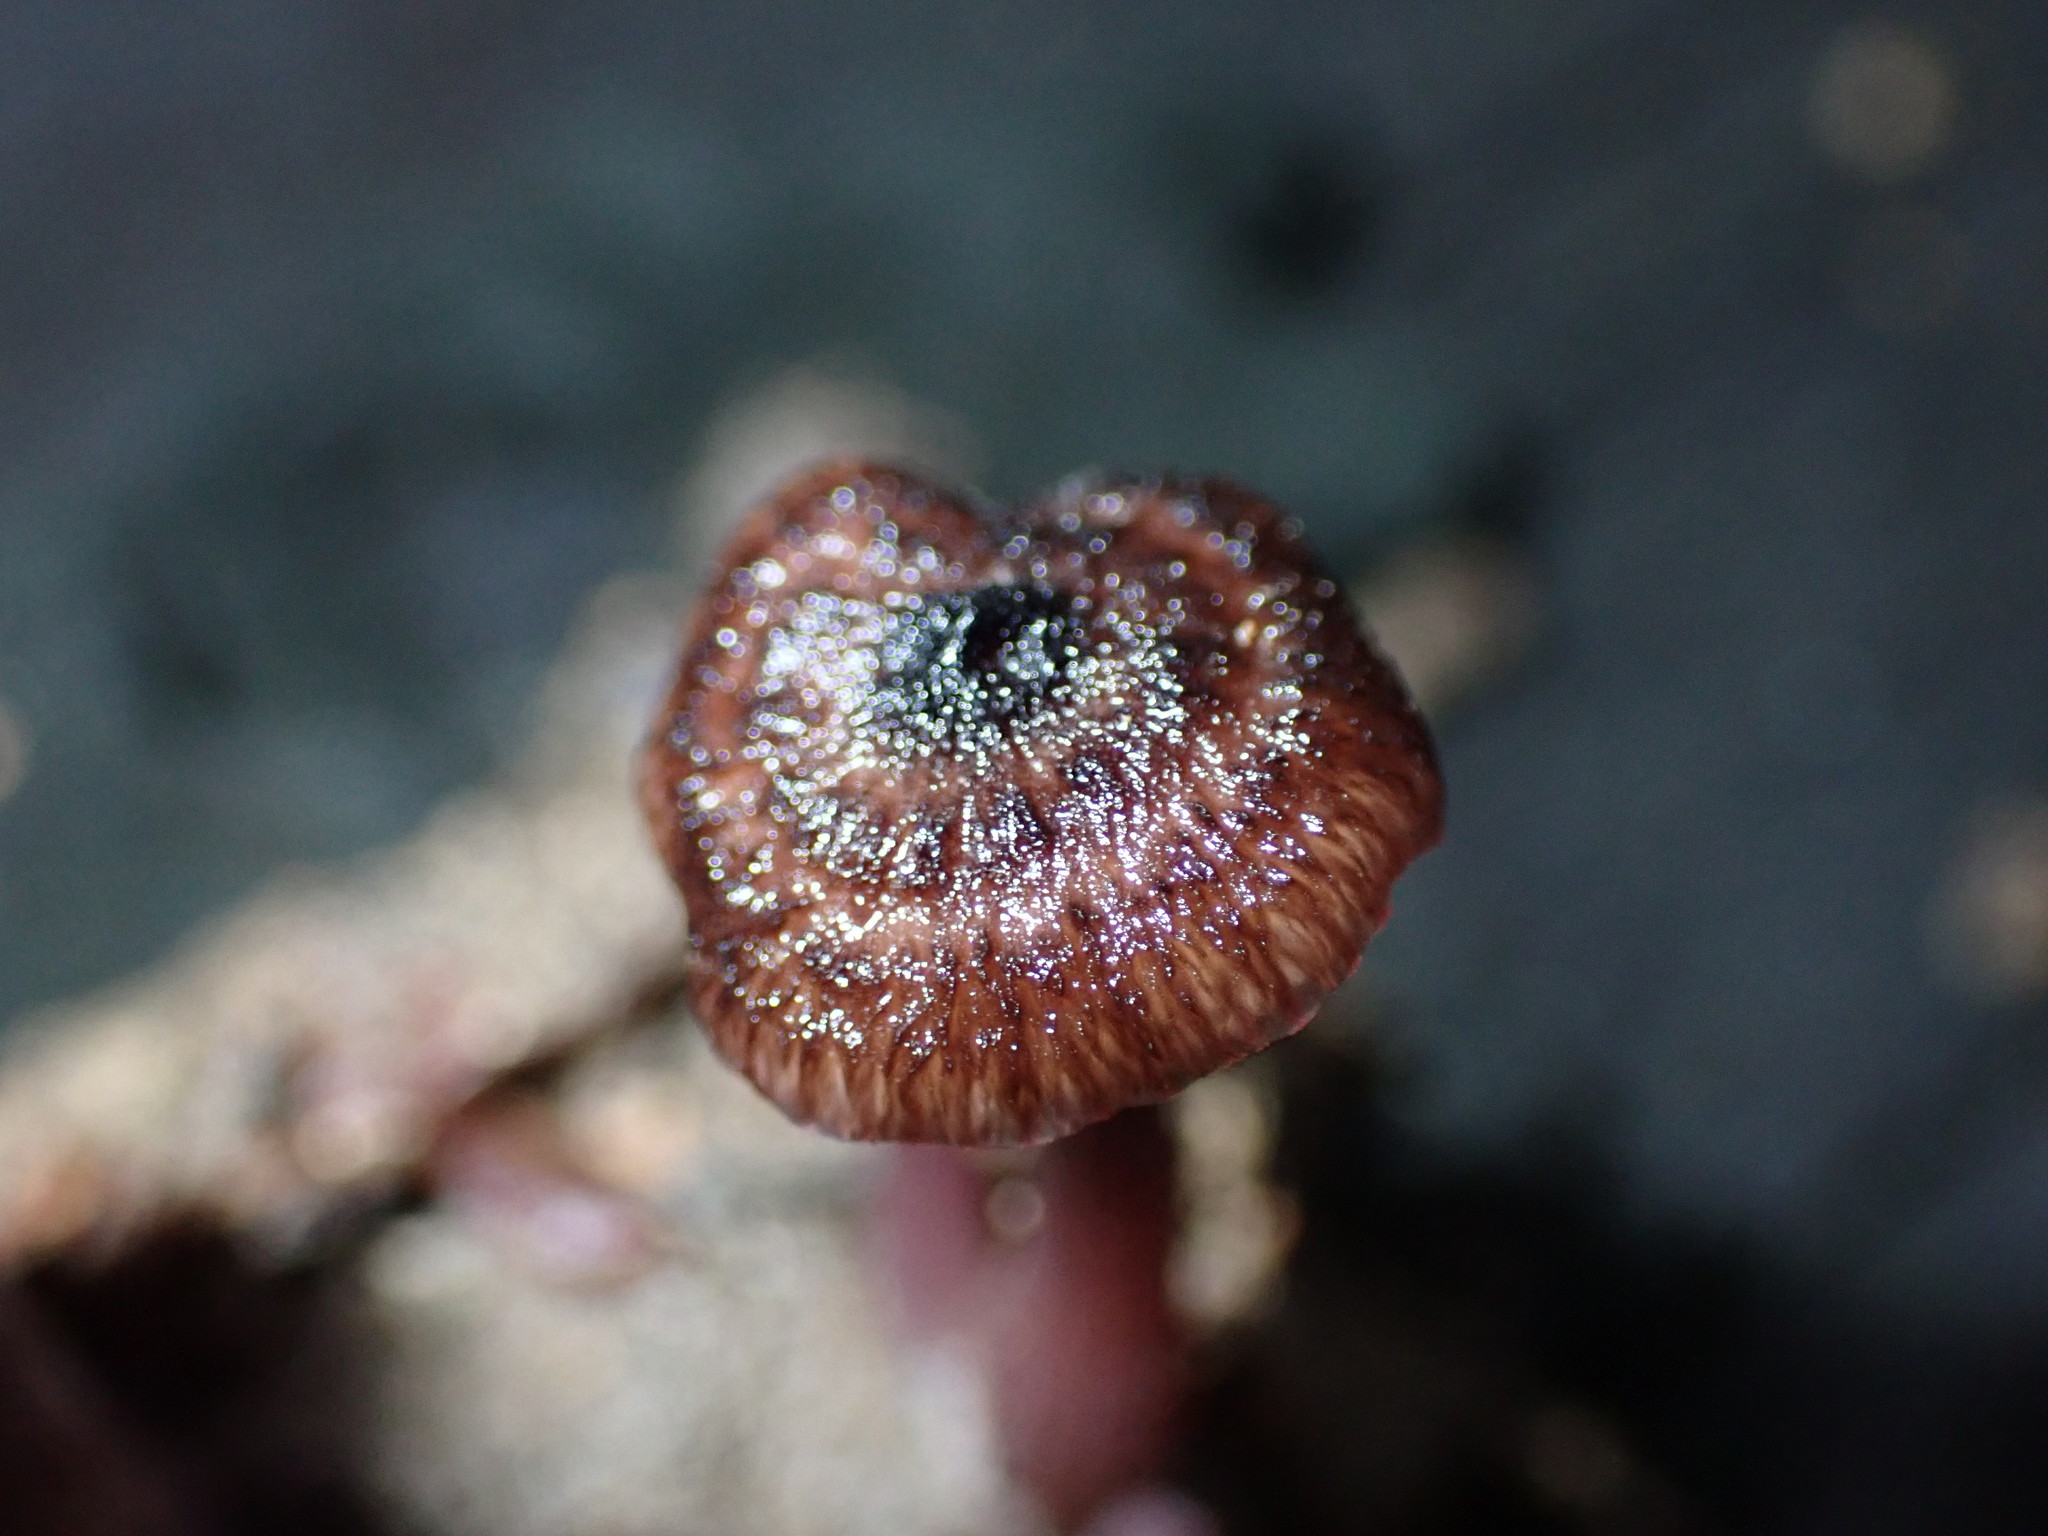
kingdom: Fungi
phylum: Basidiomycota
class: Agaricomycetes
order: Agaricales
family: Hydnangiaceae
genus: Laccaria
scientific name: Laccaria violaceonigra
